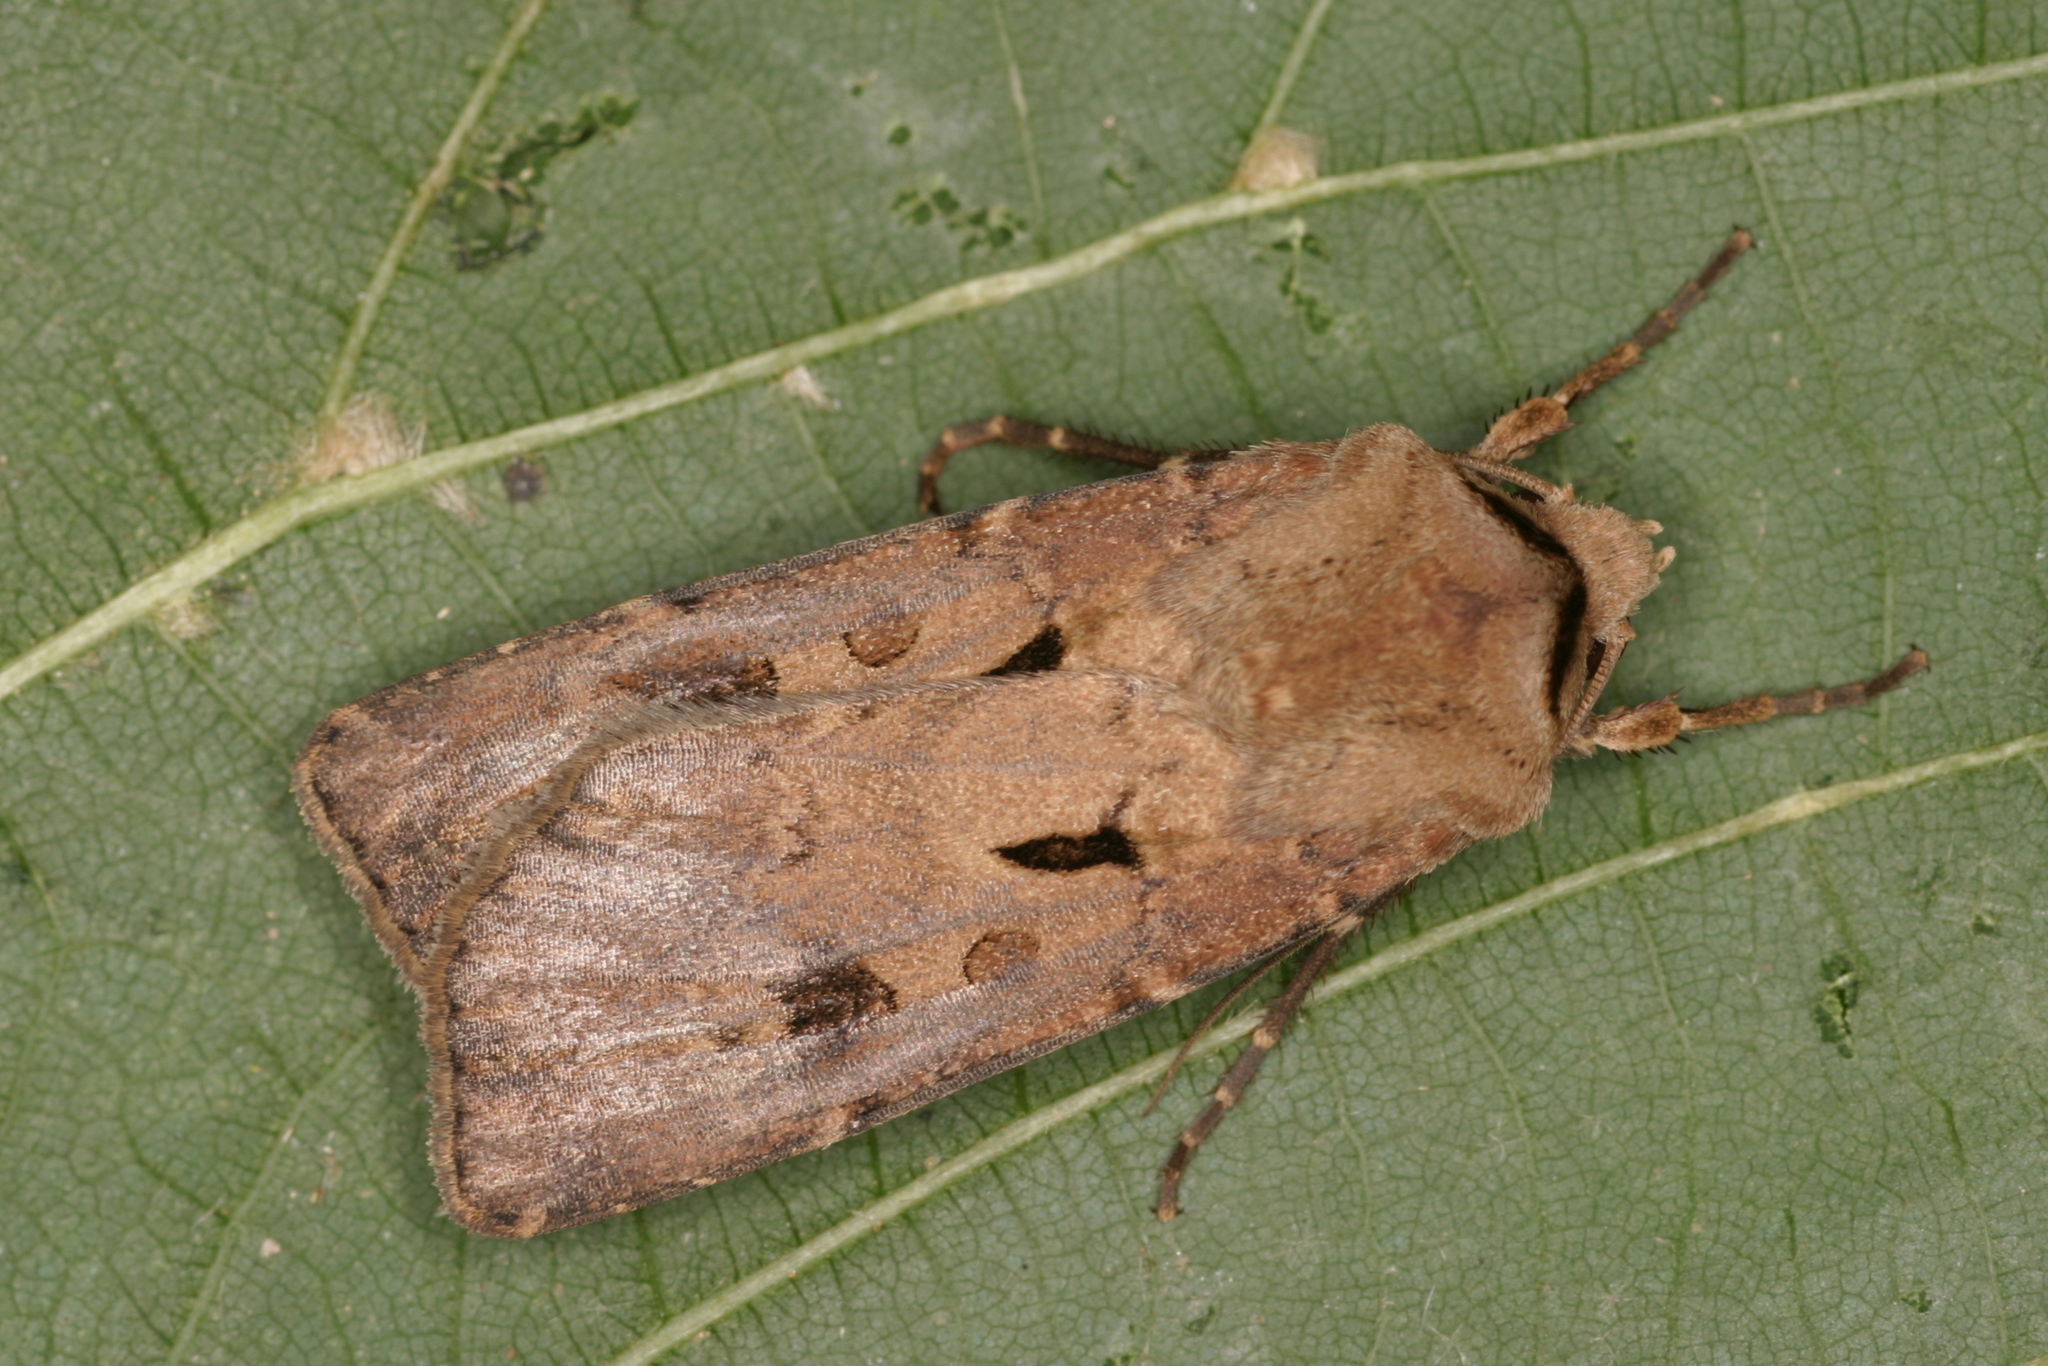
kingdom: Animalia
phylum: Arthropoda
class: Insecta
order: Lepidoptera
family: Noctuidae
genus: Agrotis
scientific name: Agrotis exclamationis
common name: Heart and dart
